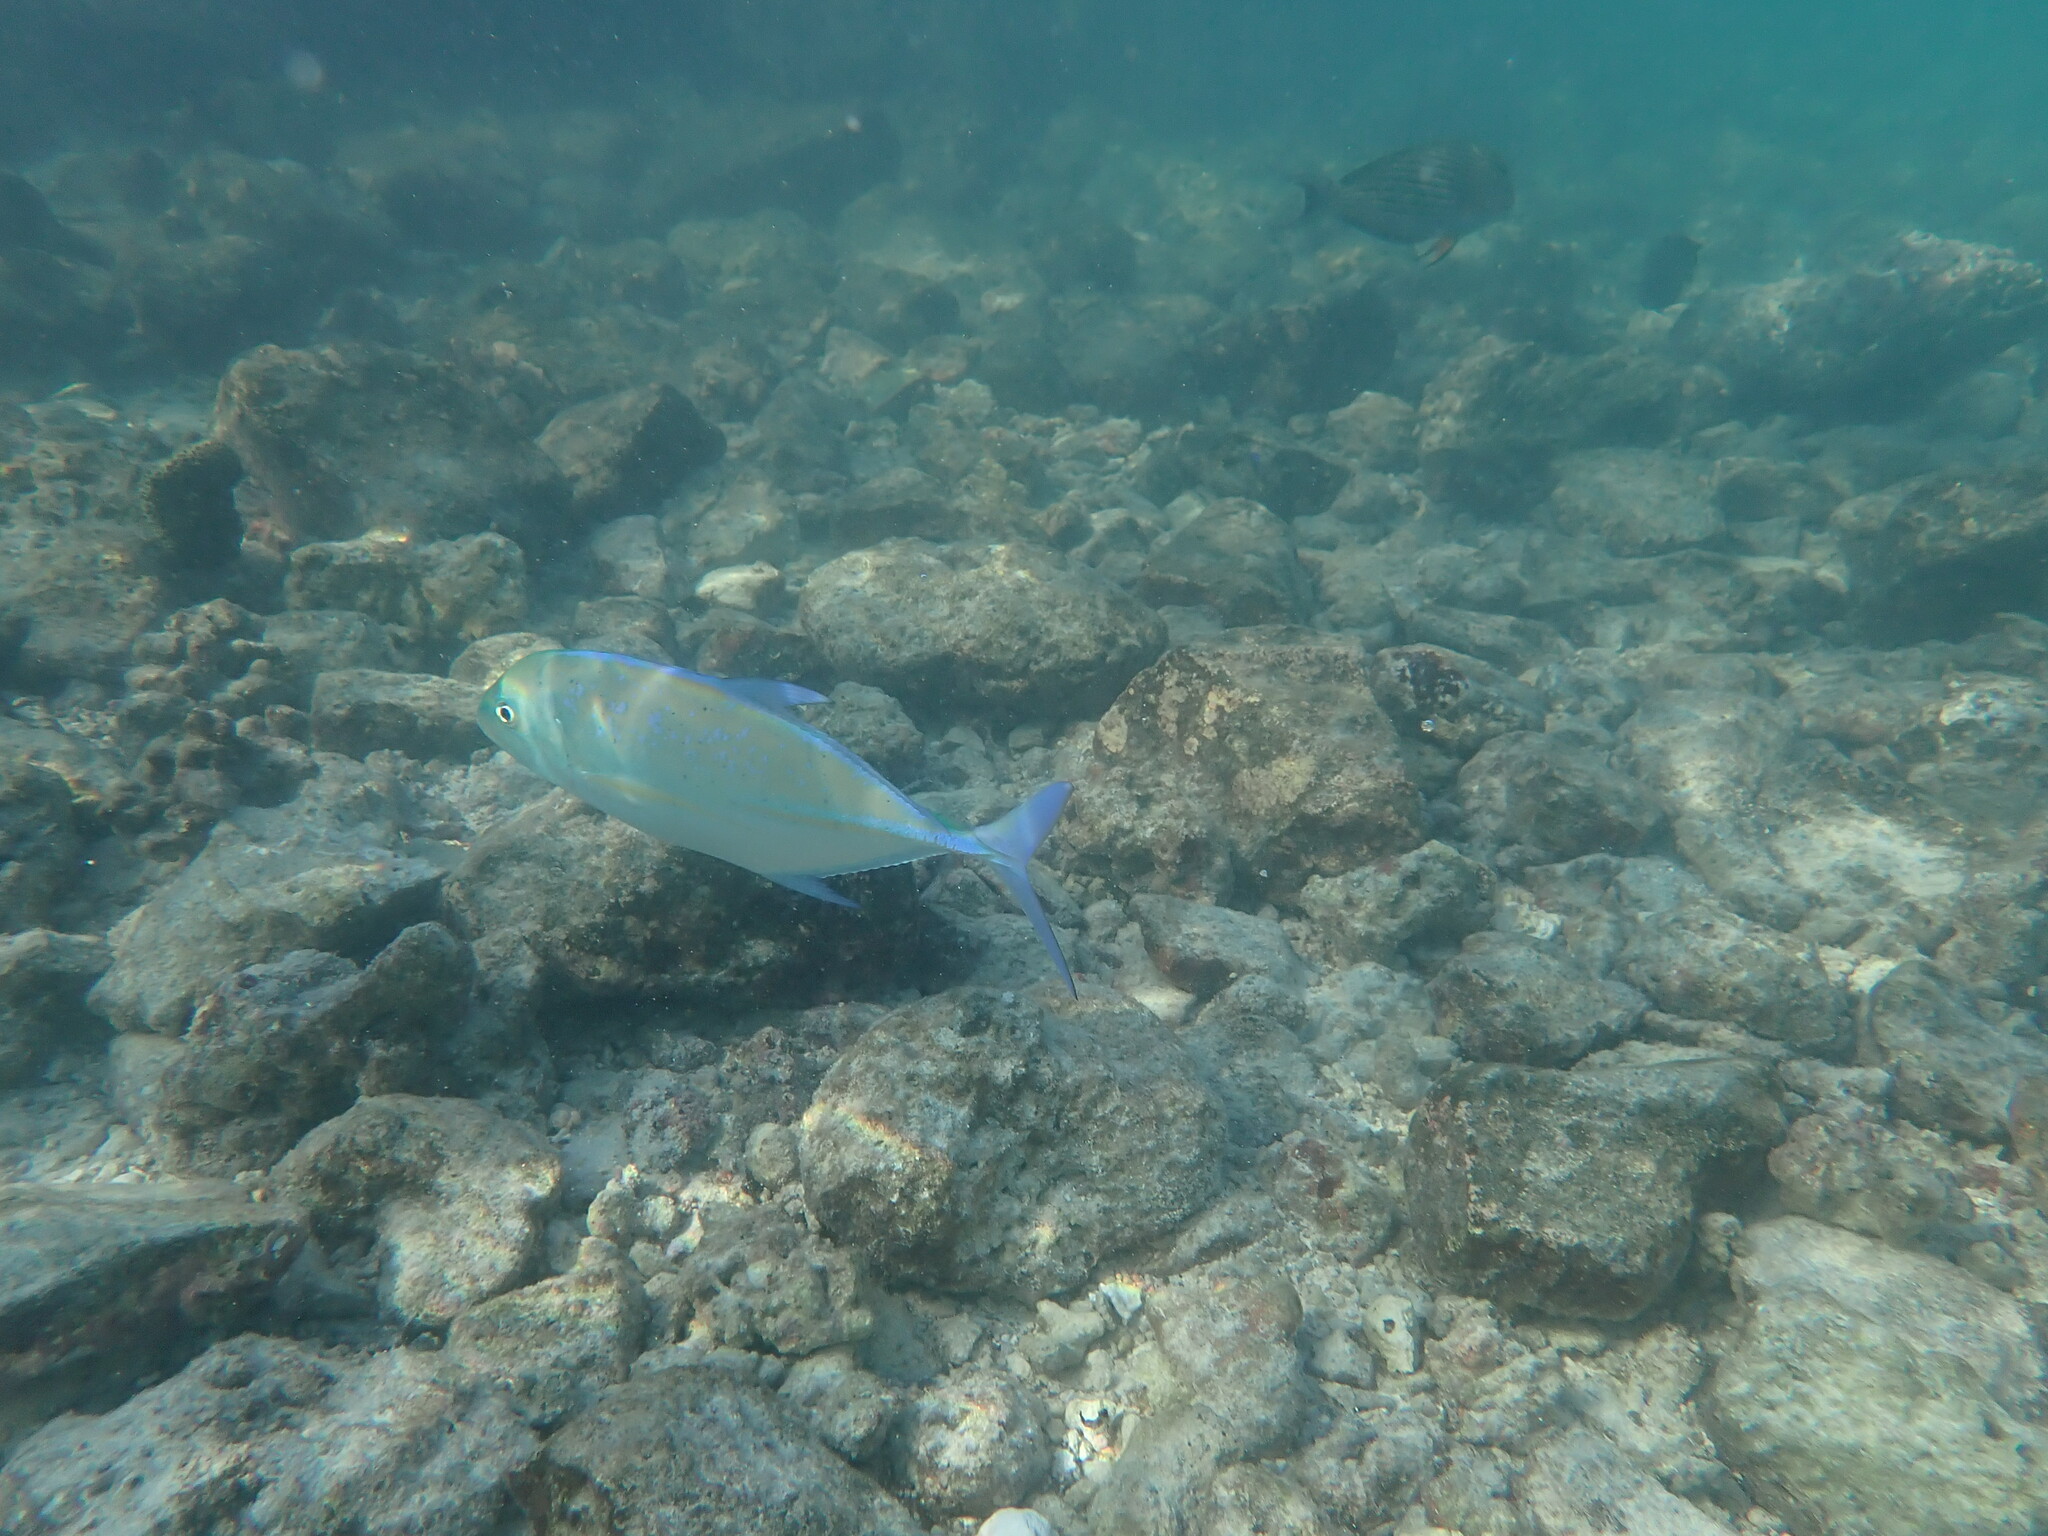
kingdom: Animalia
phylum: Chordata
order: Perciformes
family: Carangidae
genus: Caranx
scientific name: Caranx melampygus
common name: Bluefin trevally
